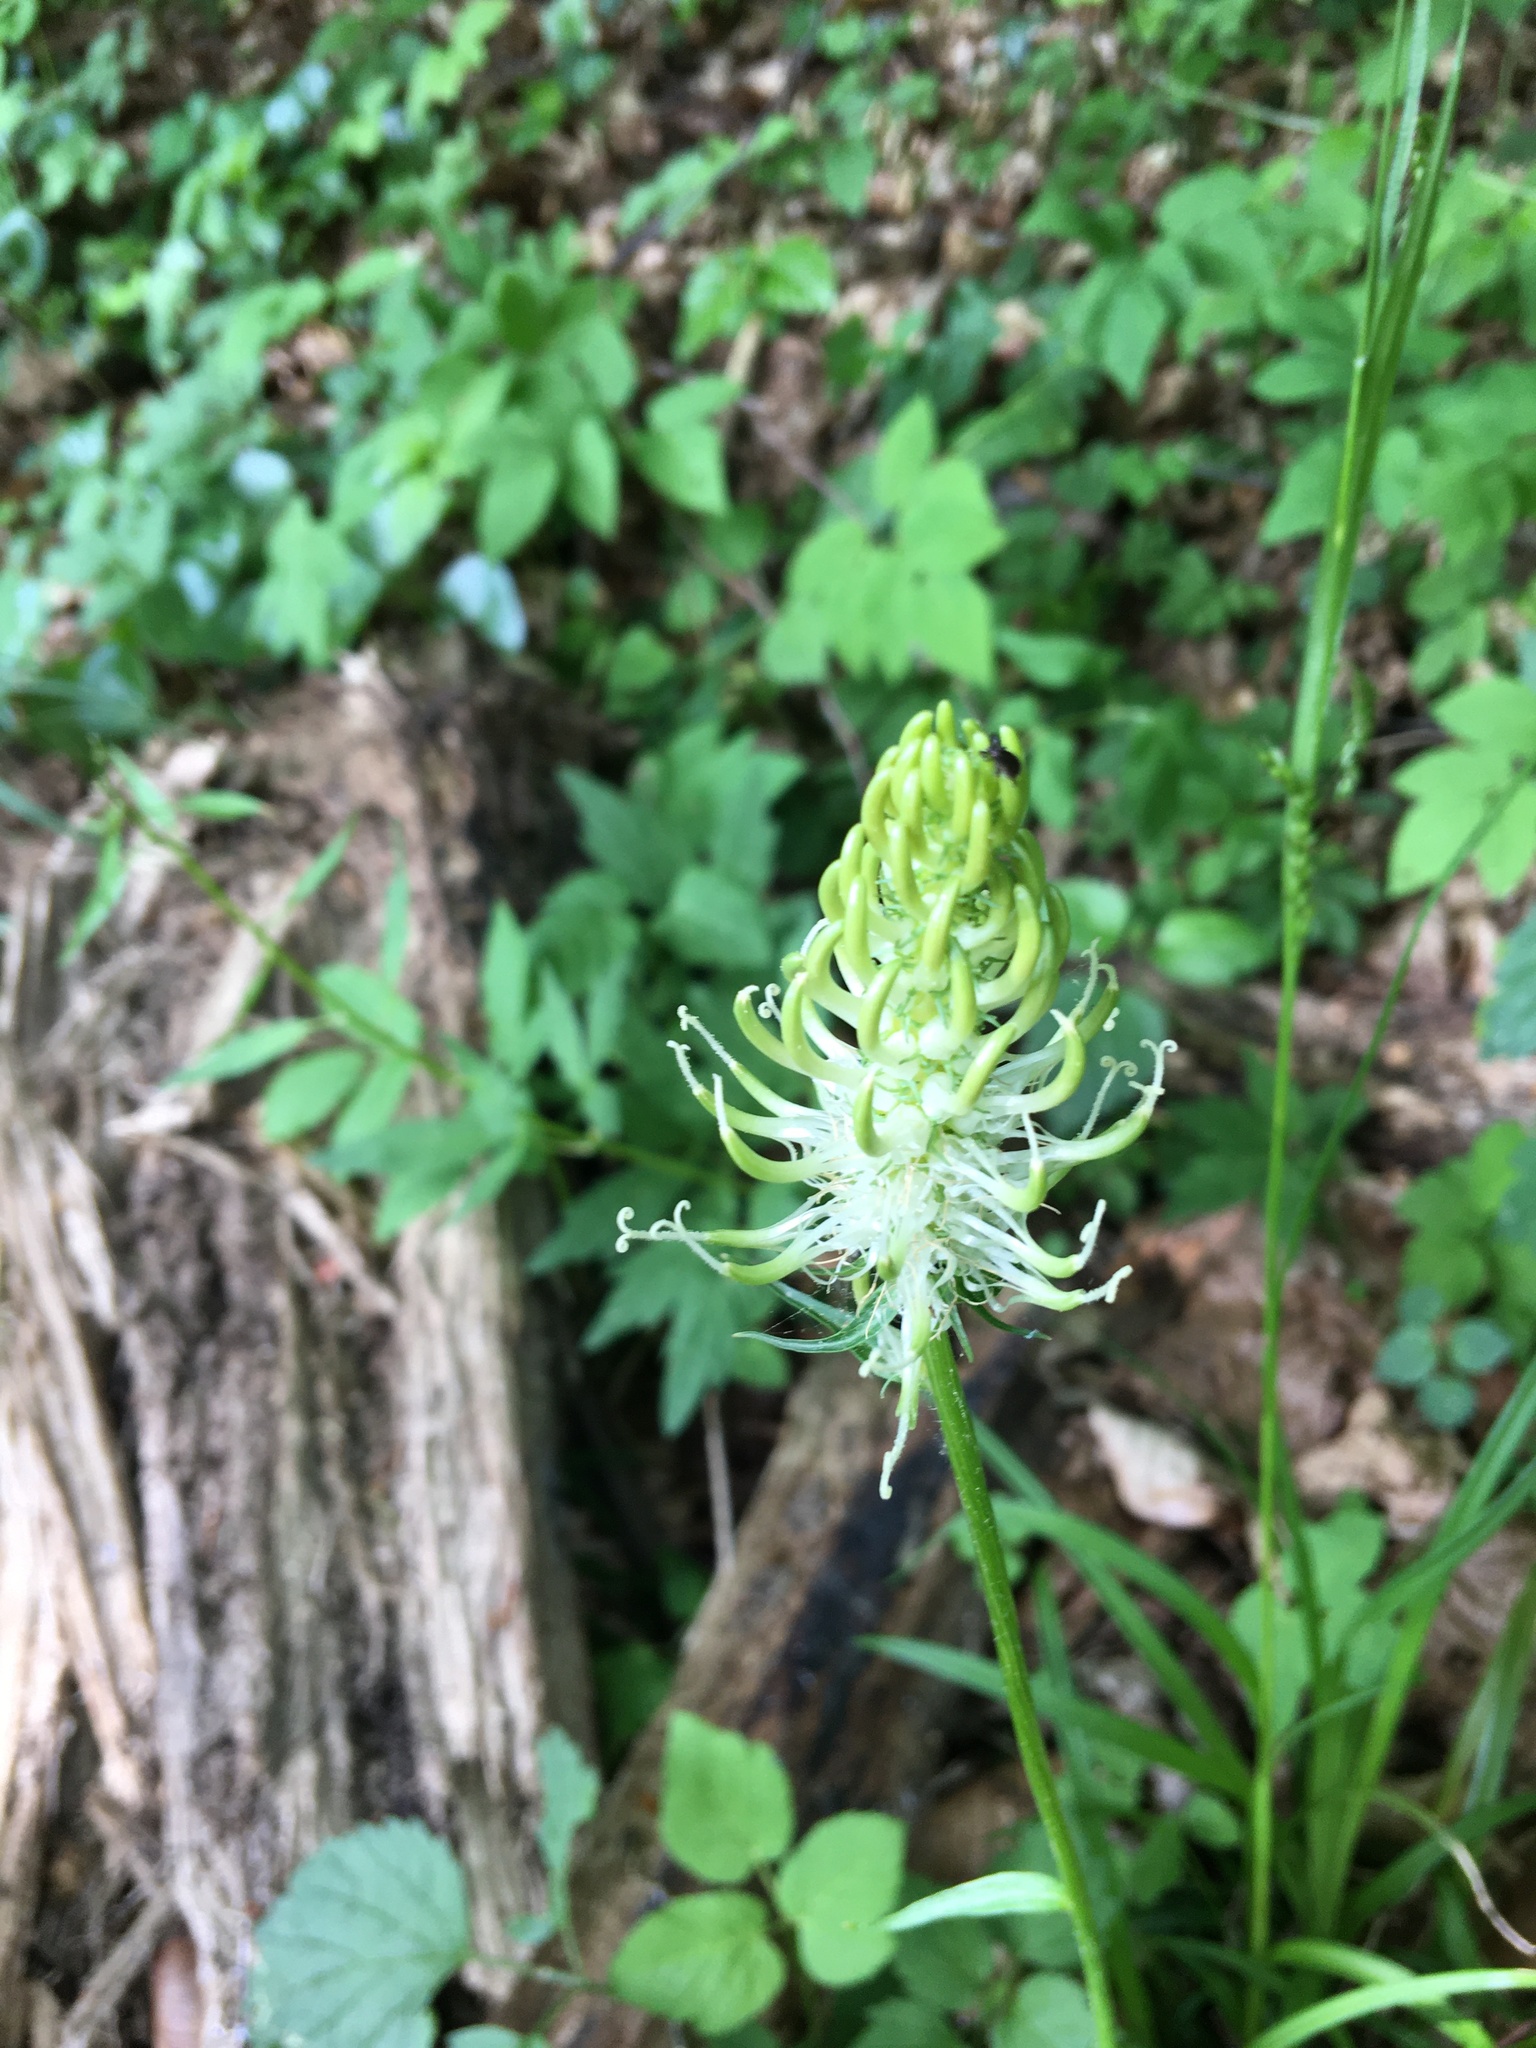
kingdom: Plantae
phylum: Tracheophyta
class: Magnoliopsida
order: Asterales
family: Campanulaceae
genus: Phyteuma
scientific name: Phyteuma spicatum
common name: Spiked rampion
